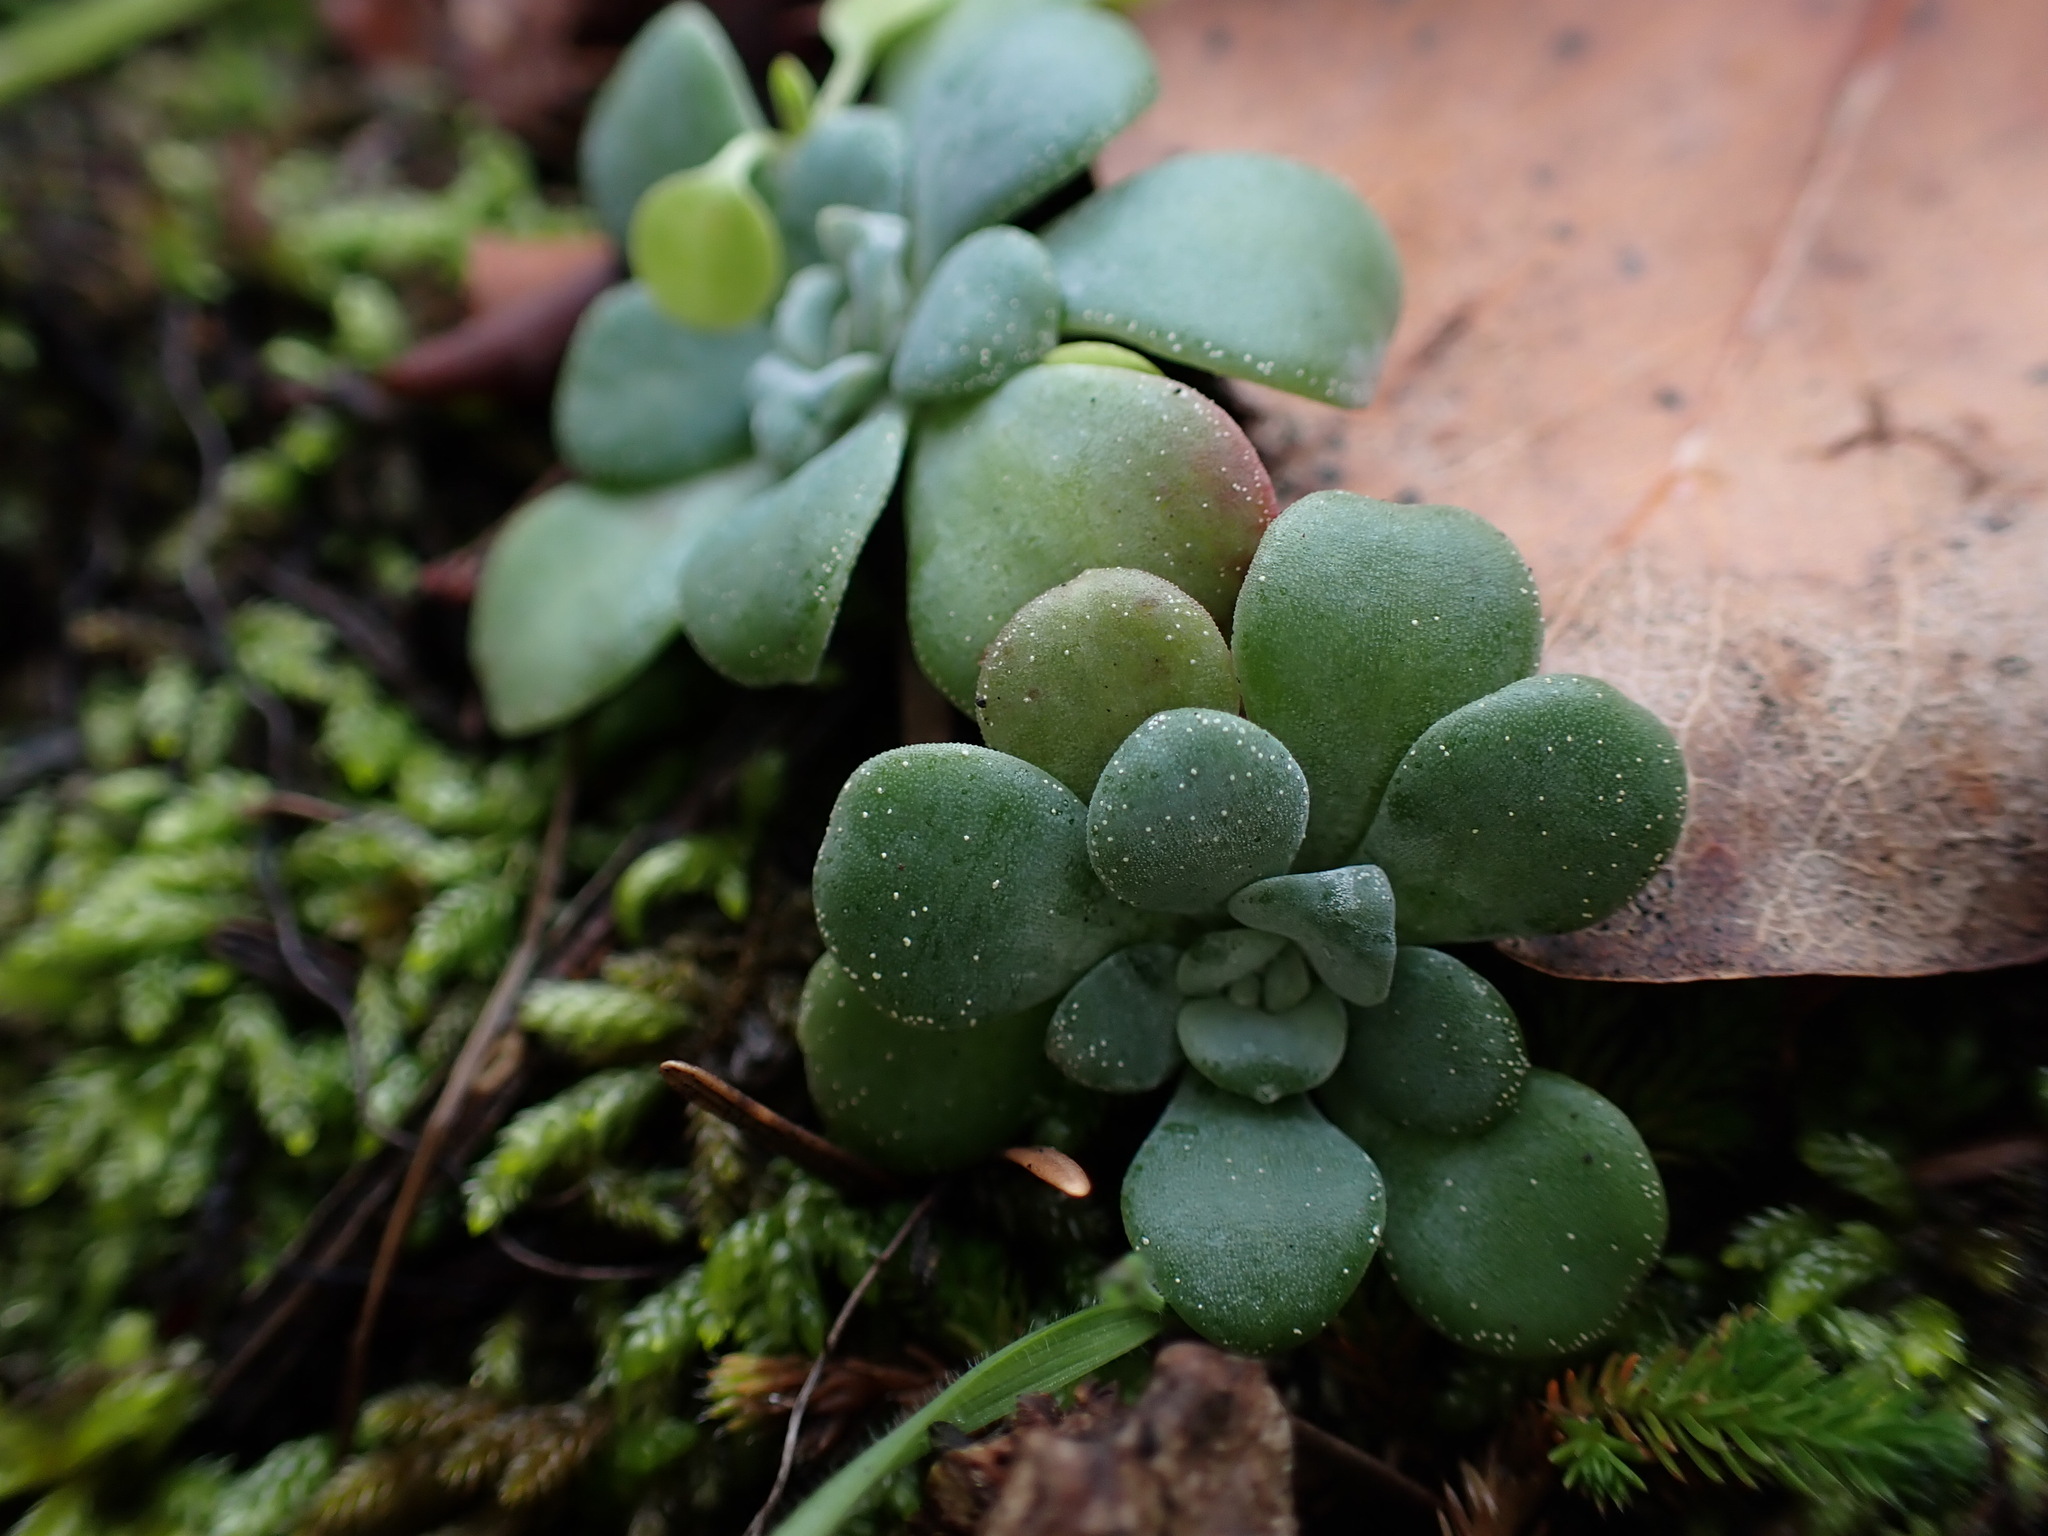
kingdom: Plantae
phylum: Tracheophyta
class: Magnoliopsida
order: Saxifragales
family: Crassulaceae
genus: Sedum
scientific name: Sedum spathulifolium
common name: Colorado stonecrop
